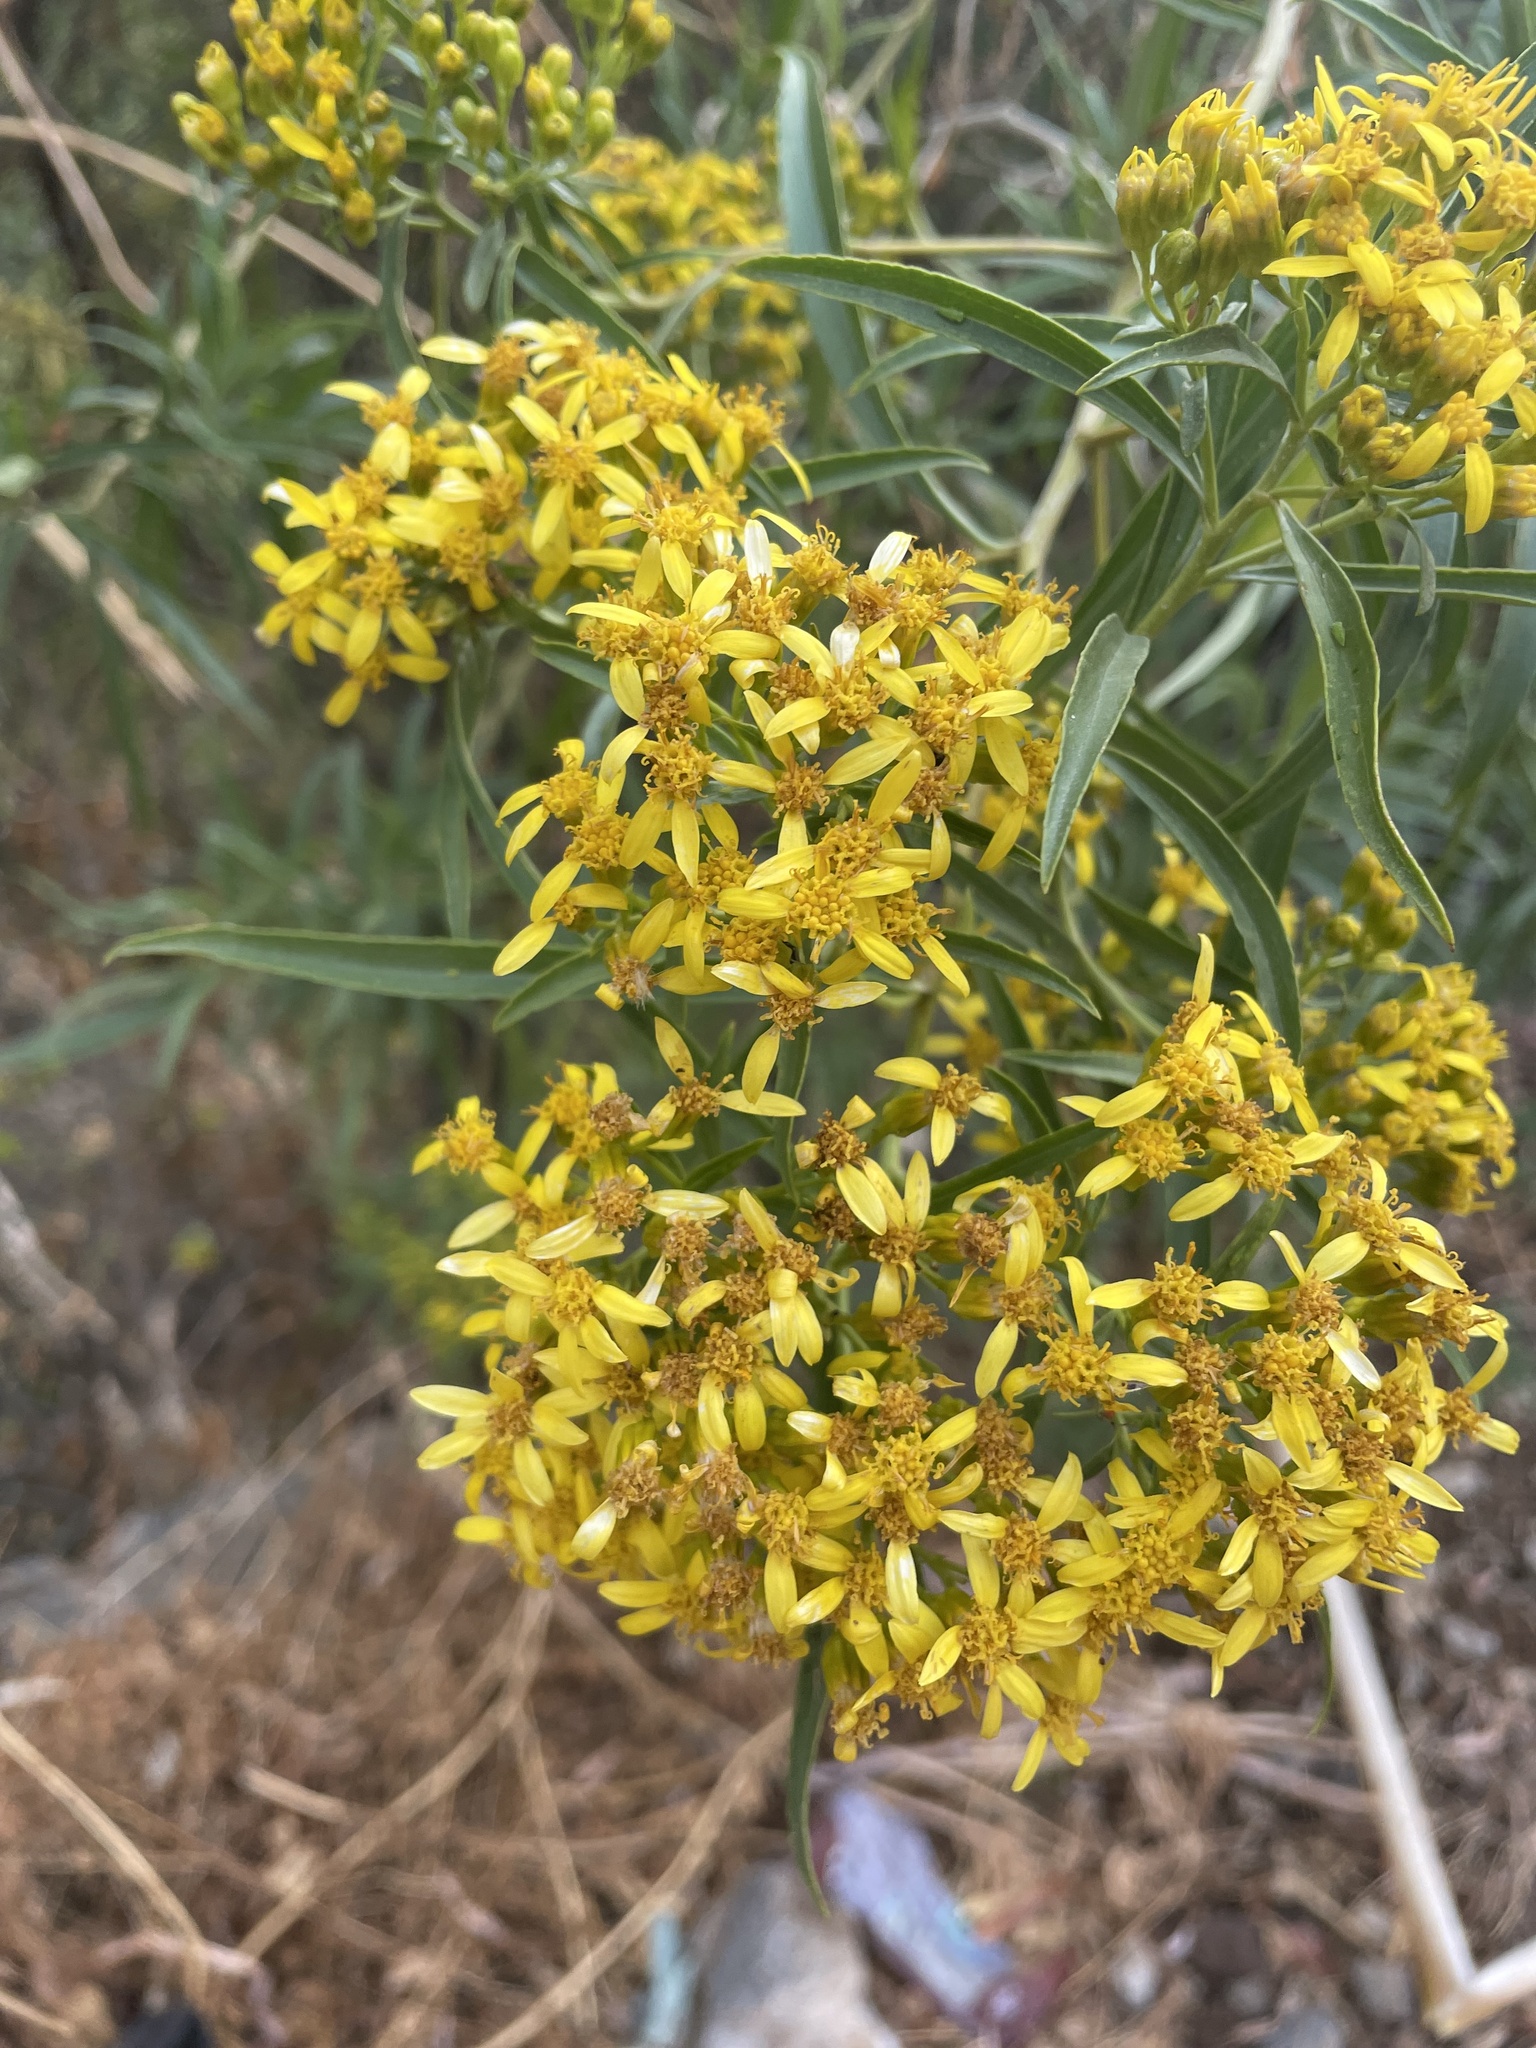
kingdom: Plantae
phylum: Tracheophyta
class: Magnoliopsida
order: Asterales
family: Asteraceae
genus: Barkleyanthus
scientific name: Barkleyanthus salicifolius
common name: Willow ragwort
